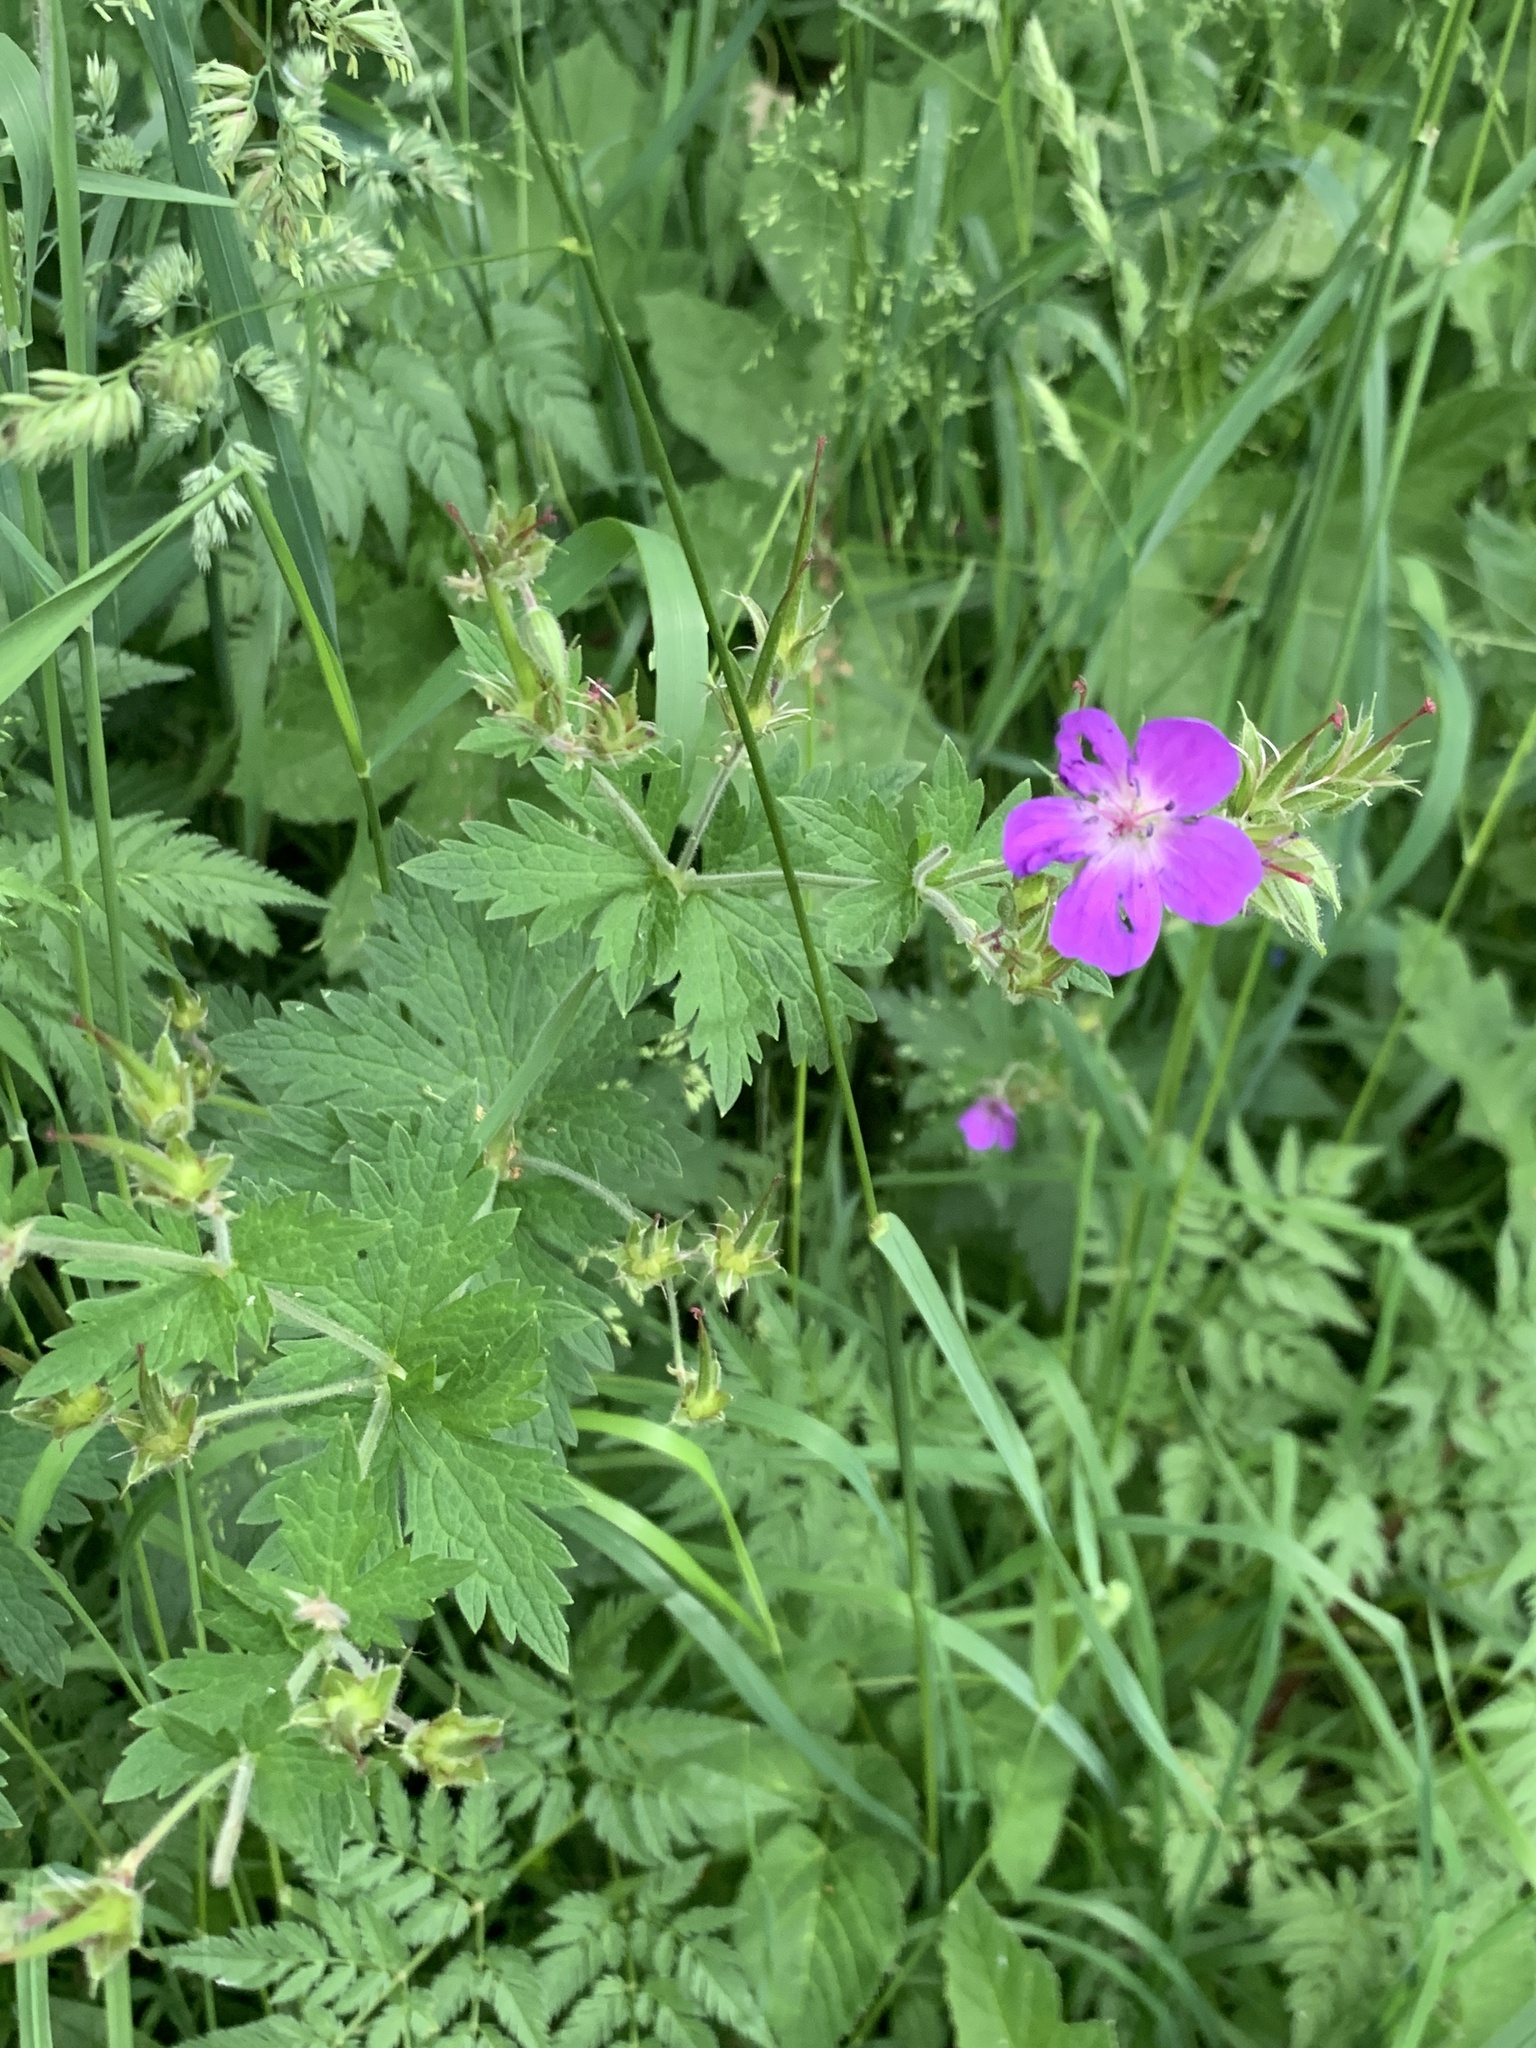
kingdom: Plantae
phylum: Tracheophyta
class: Magnoliopsida
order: Geraniales
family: Geraniaceae
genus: Geranium
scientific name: Geranium sylvaticum
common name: Wood crane's-bill
